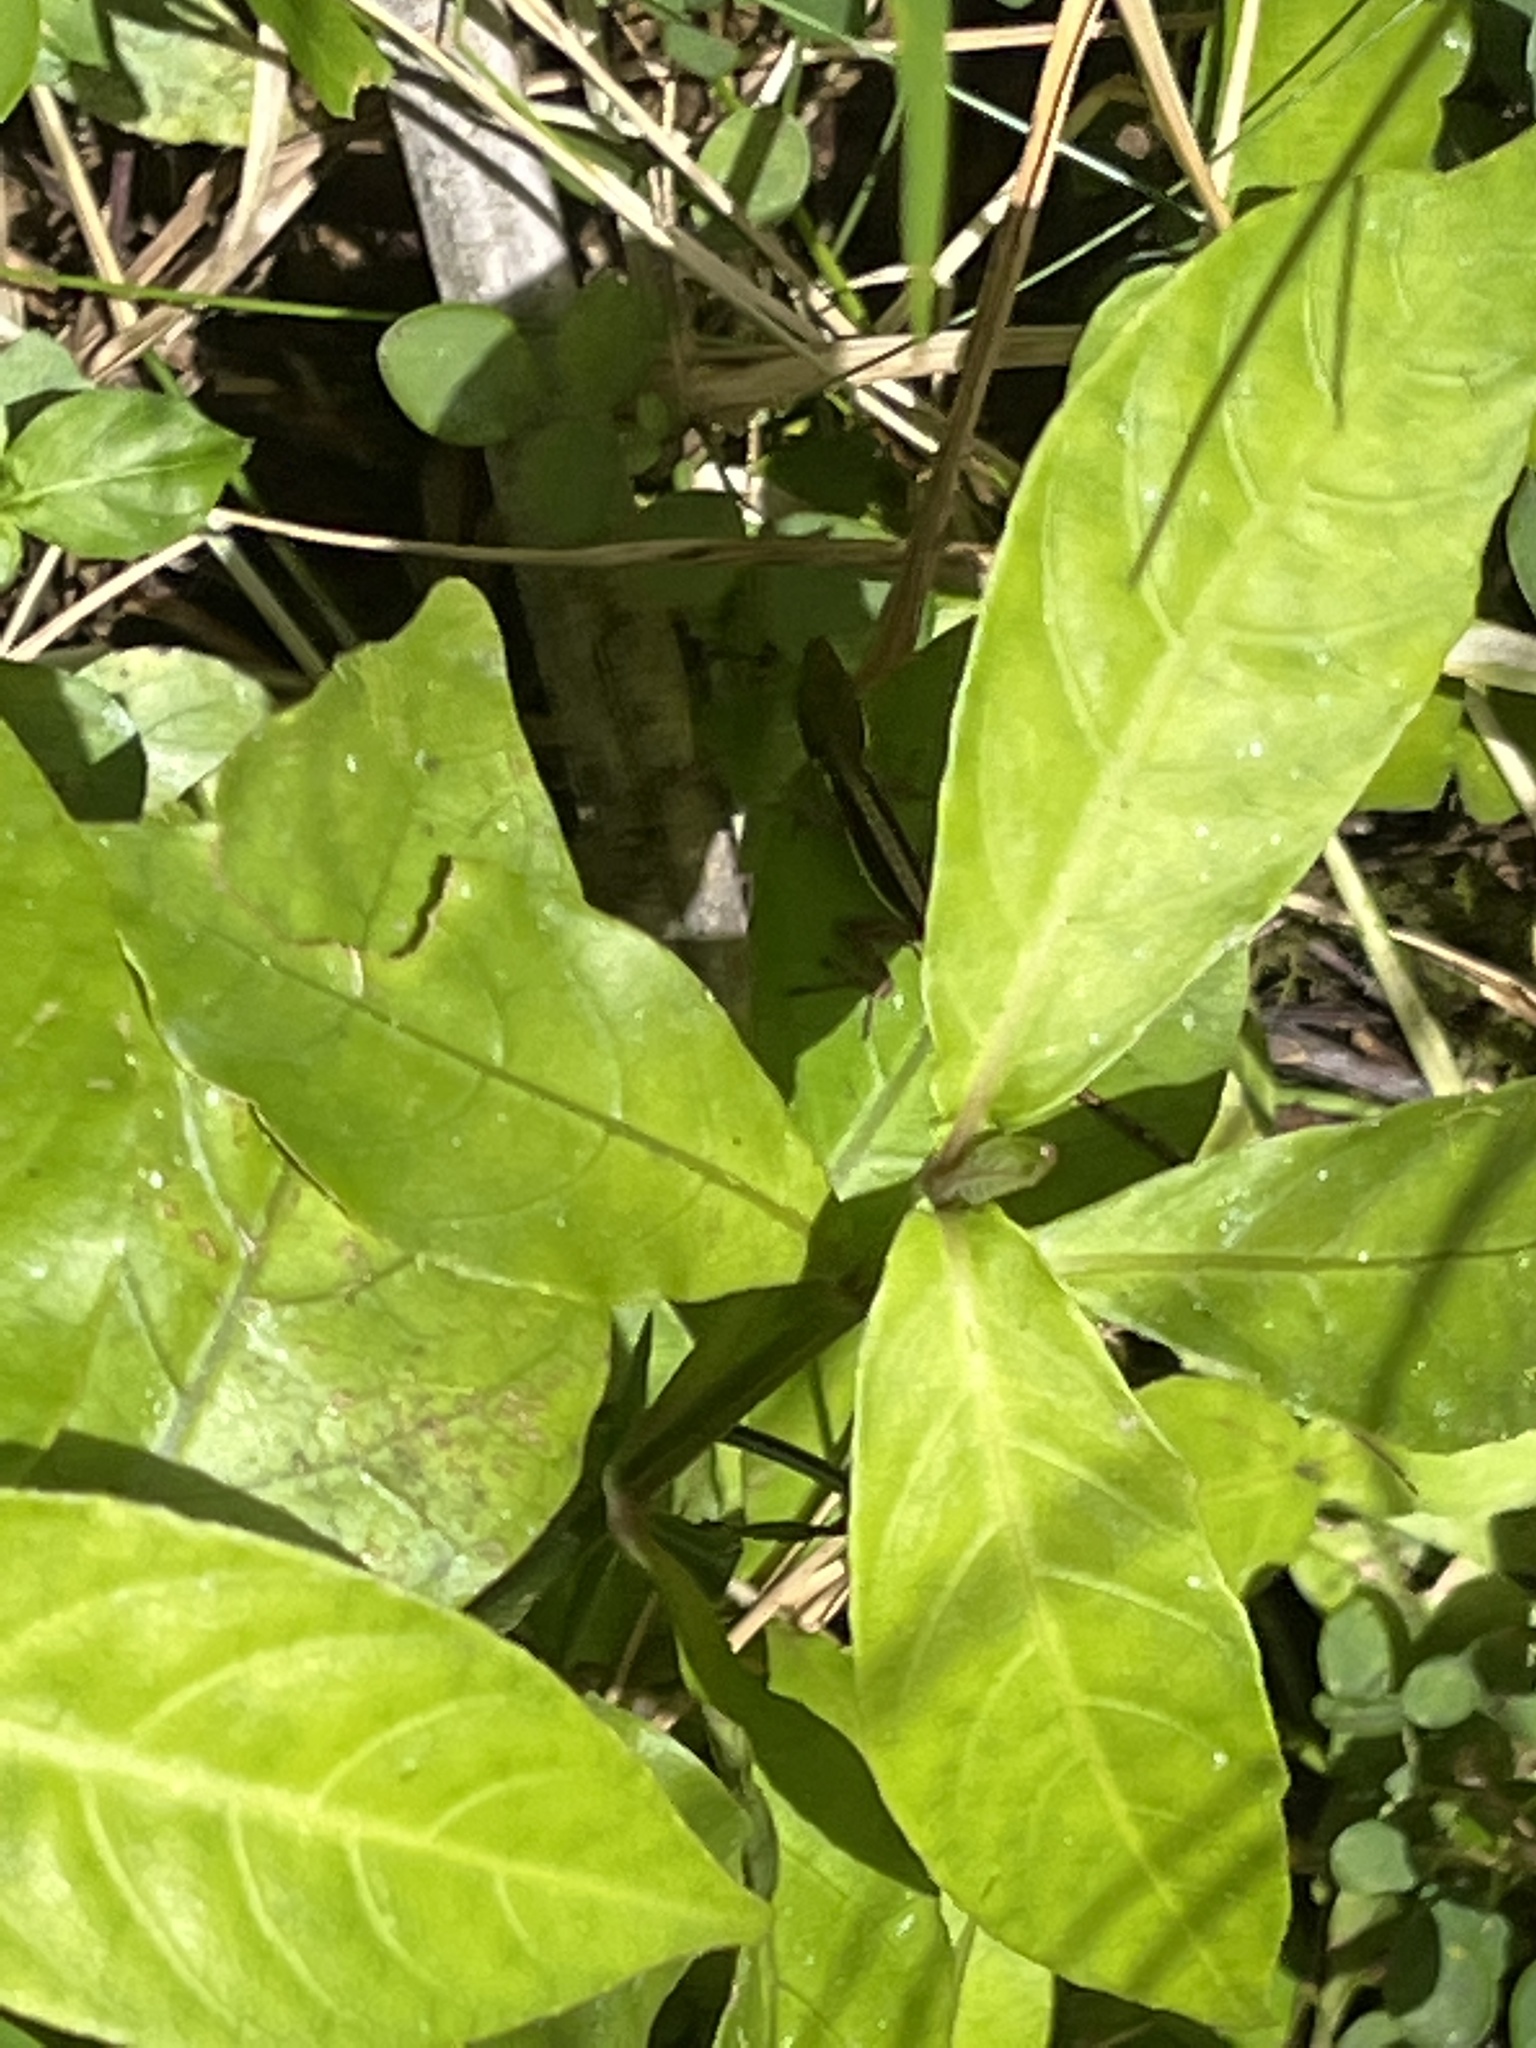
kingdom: Animalia
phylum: Chordata
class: Squamata
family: Dactyloidae
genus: Anolis
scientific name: Anolis pulchellus
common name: Puerto rican anole
